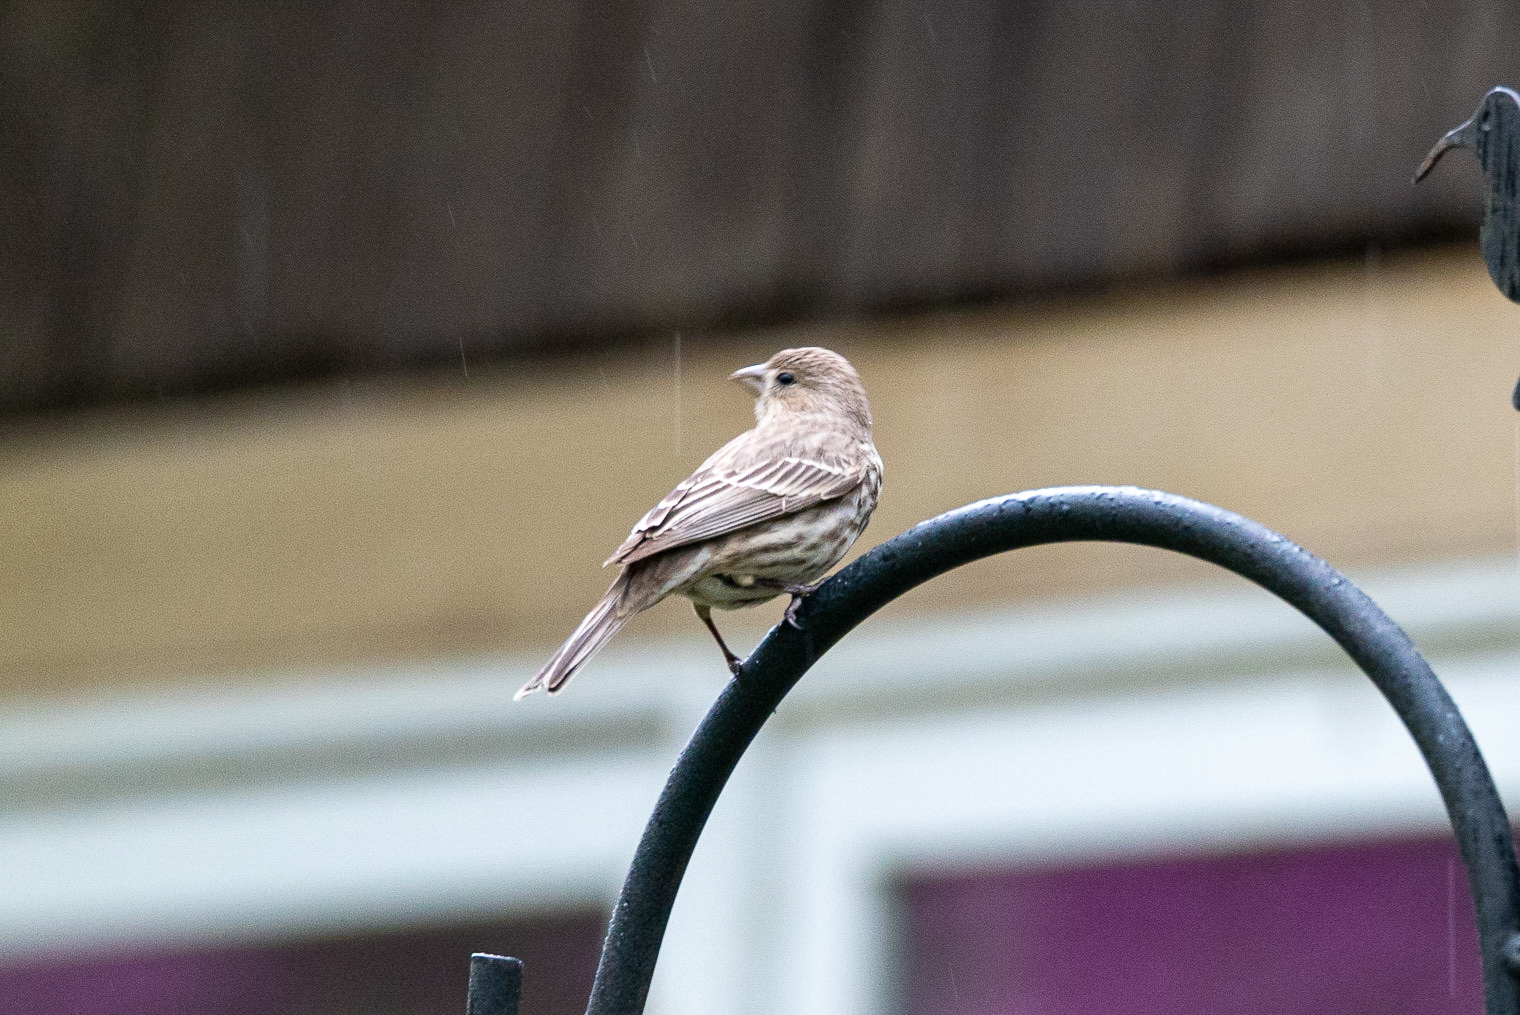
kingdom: Animalia
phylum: Chordata
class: Aves
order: Passeriformes
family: Fringillidae
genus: Haemorhous
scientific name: Haemorhous mexicanus
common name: House finch
